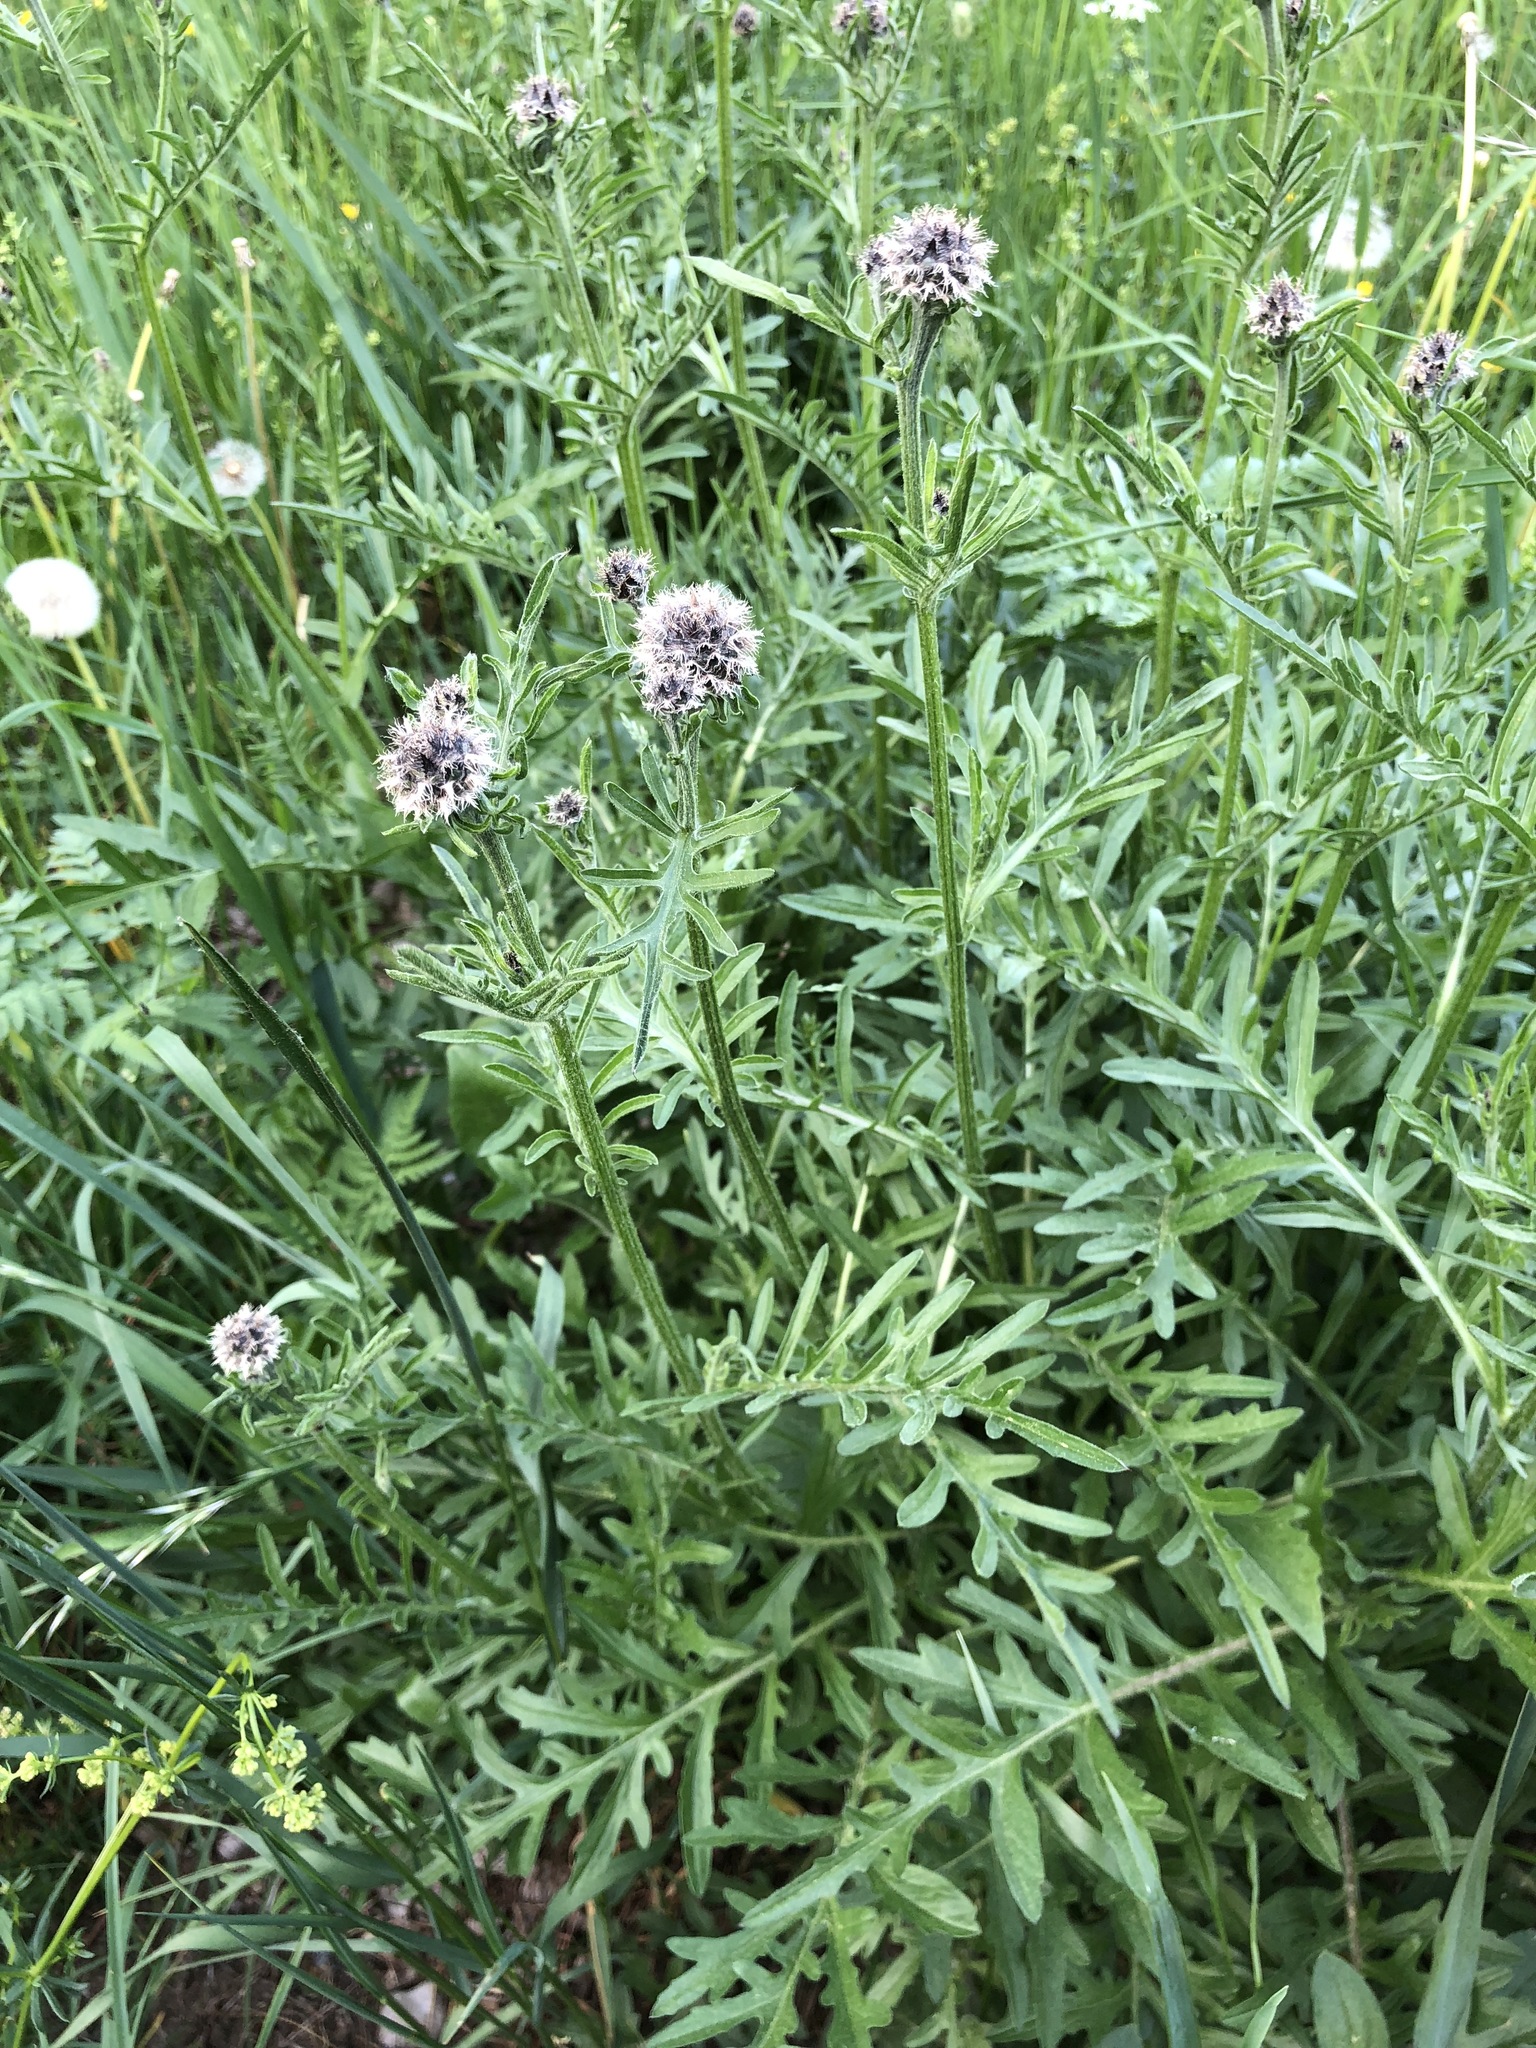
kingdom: Plantae
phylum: Tracheophyta
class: Magnoliopsida
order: Asterales
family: Asteraceae
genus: Centaurea
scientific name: Centaurea scabiosa
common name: Greater knapweed
